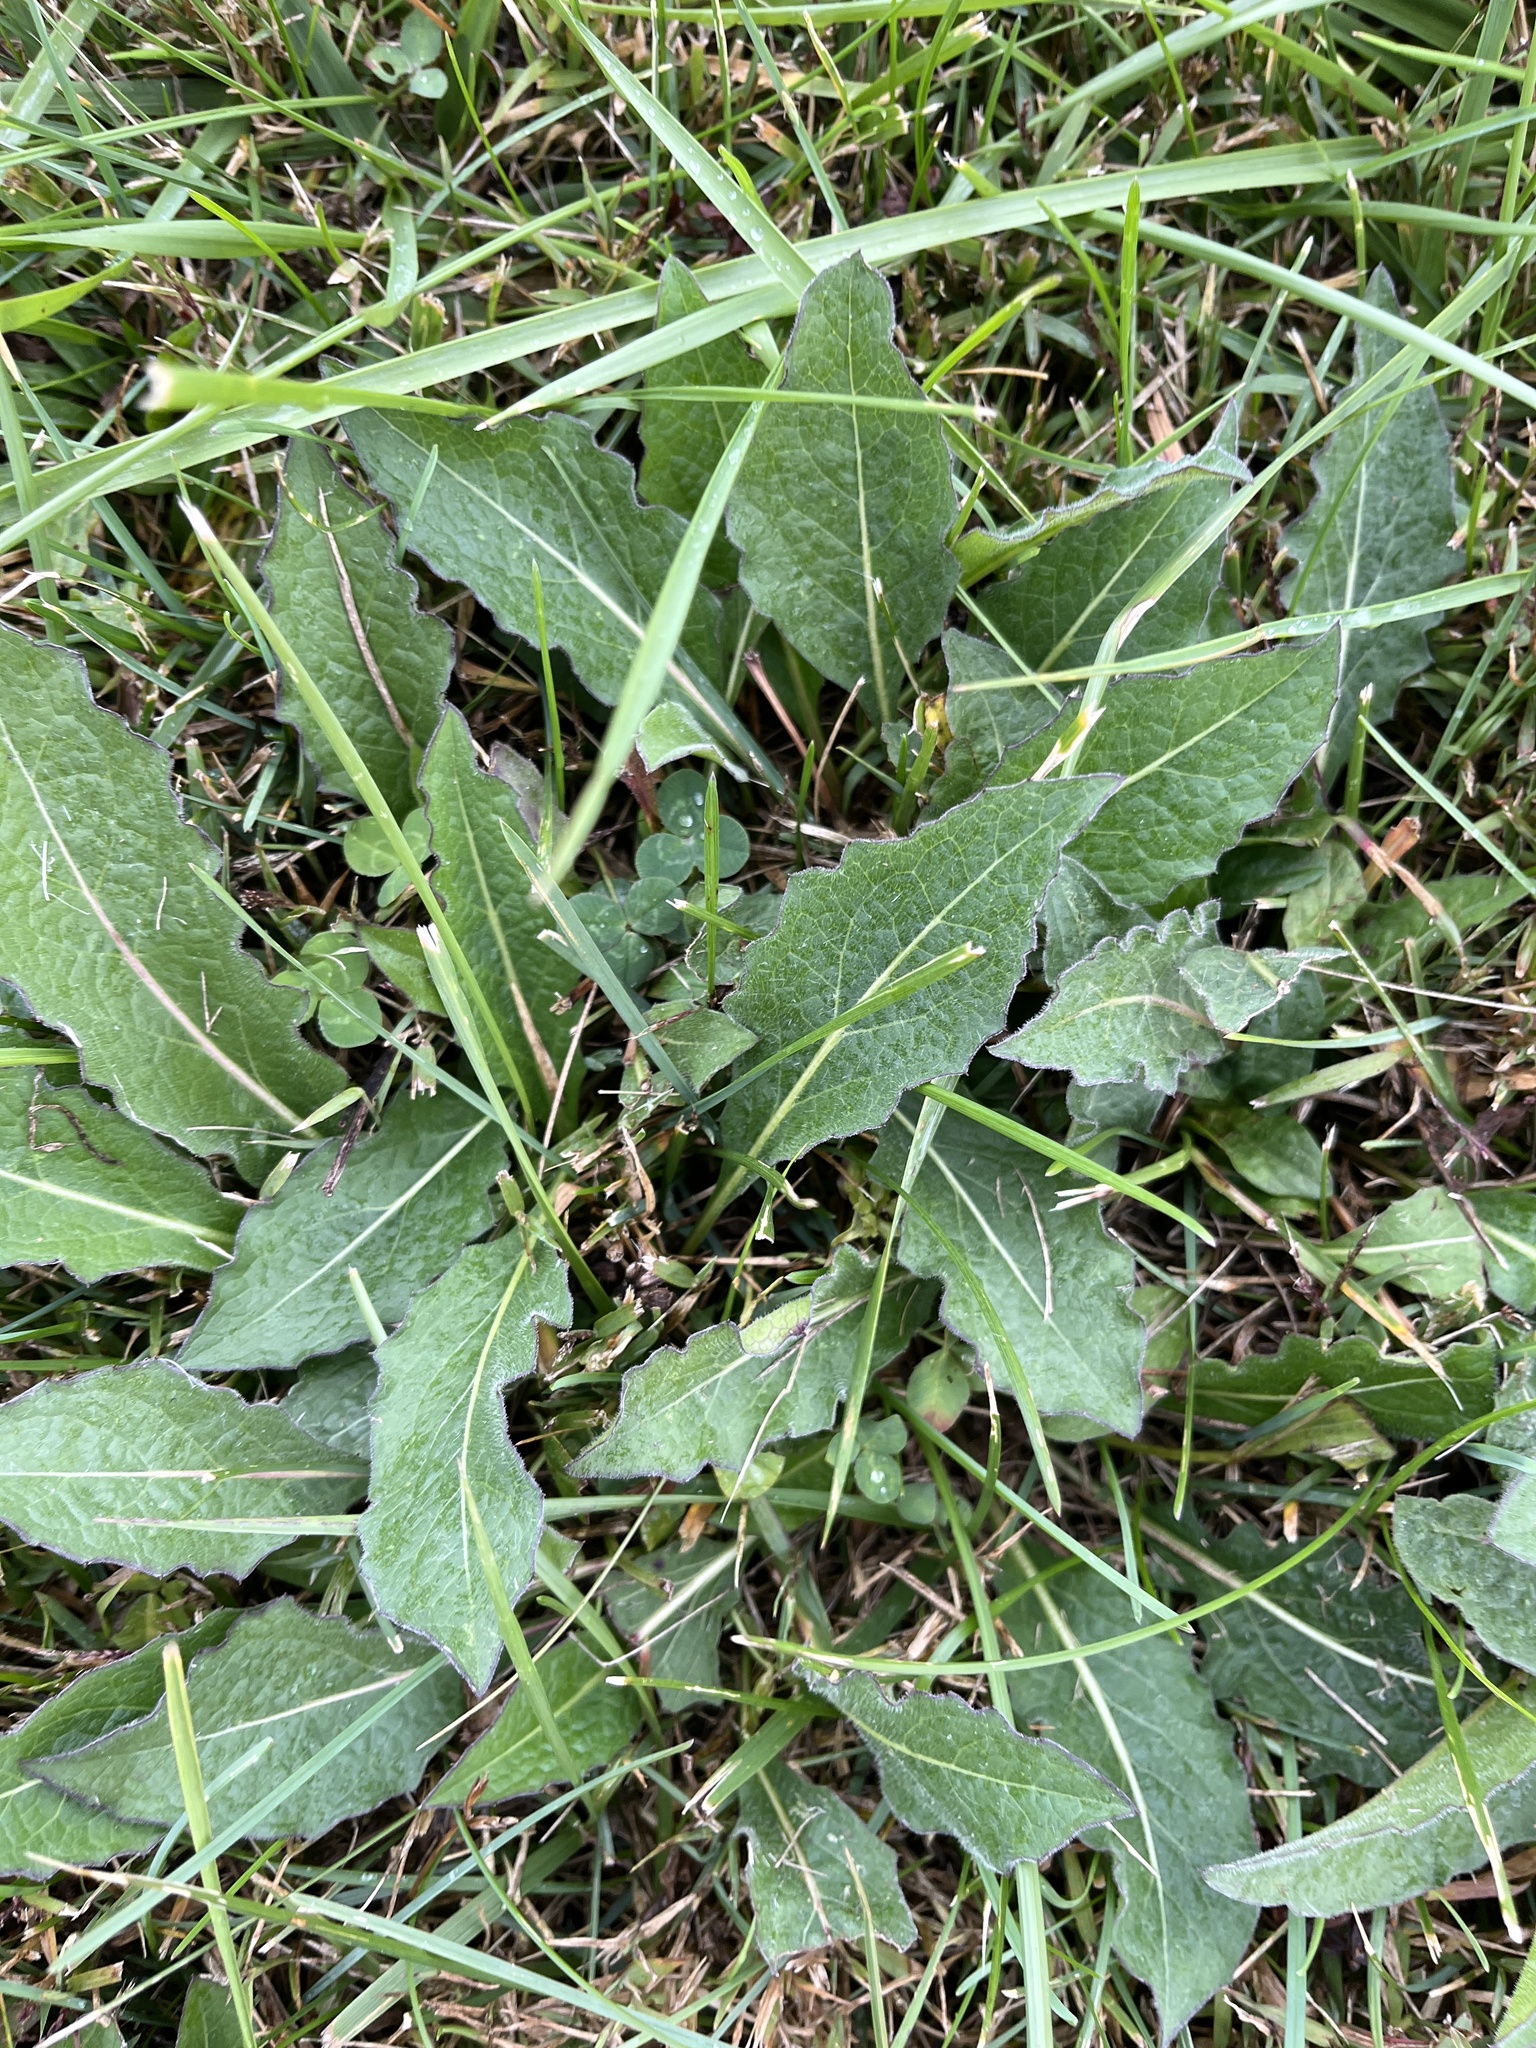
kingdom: Plantae
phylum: Tracheophyta
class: Magnoliopsida
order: Brassicales
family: Brassicaceae
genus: Hesperis
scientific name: Hesperis matronalis
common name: Dame's-violet
